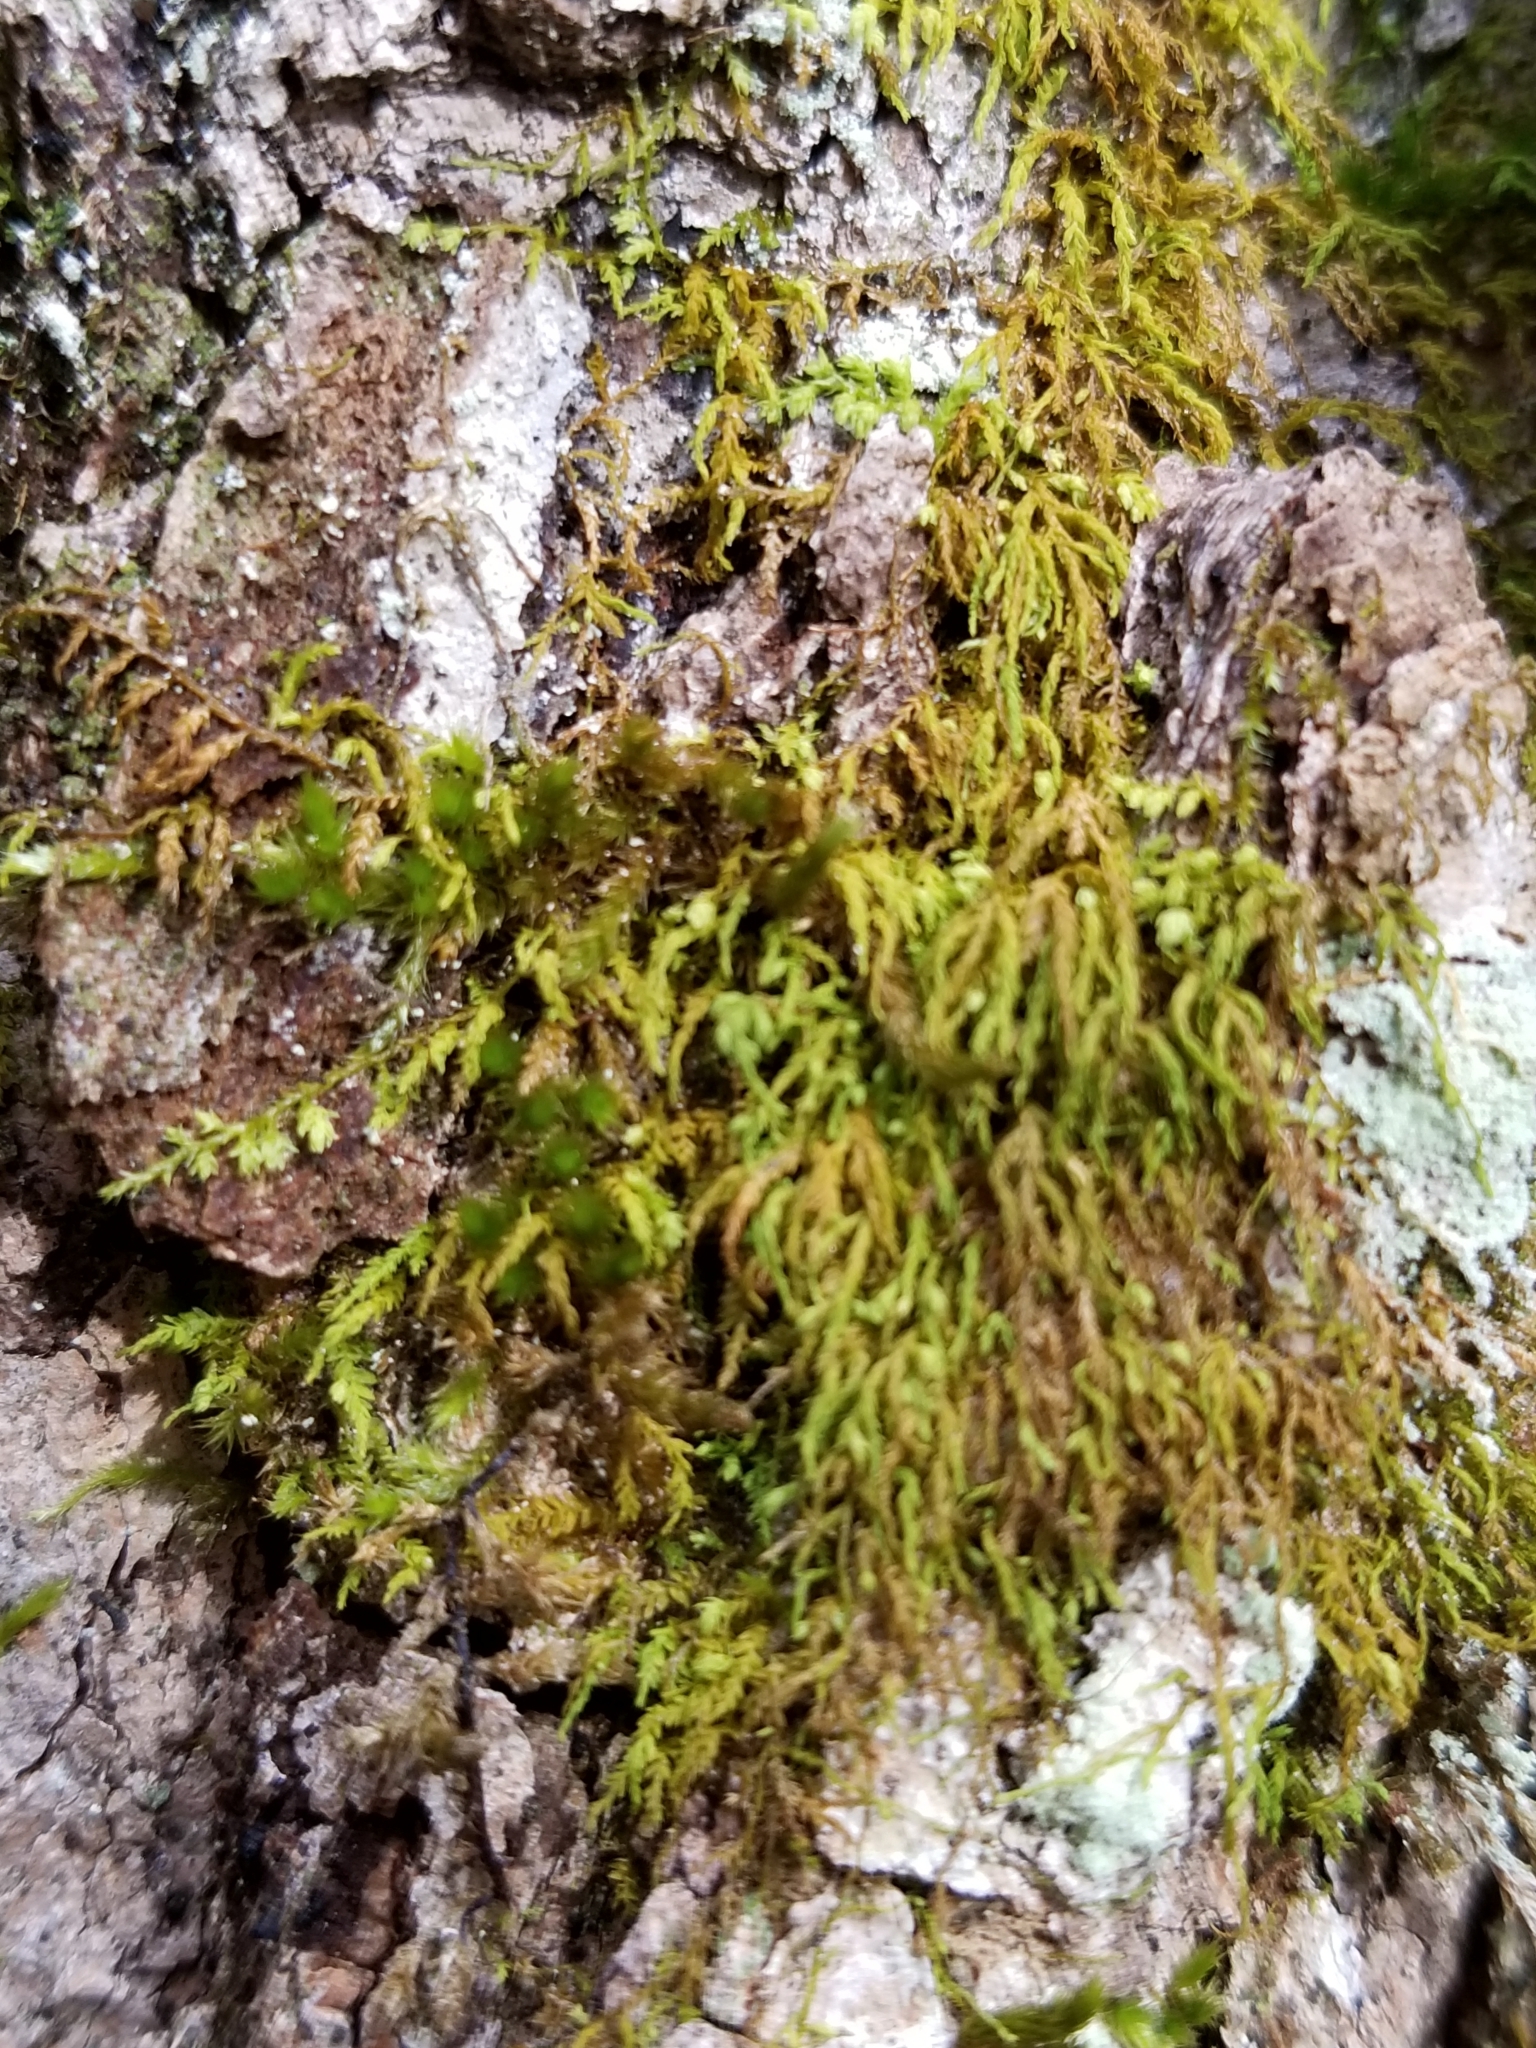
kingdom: Plantae
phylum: Bryophyta
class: Bryopsida
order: Hypnales
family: Neckeraceae
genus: Pseudanomodon
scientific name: Pseudanomodon attenuatus
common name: Tree-skirt moss
